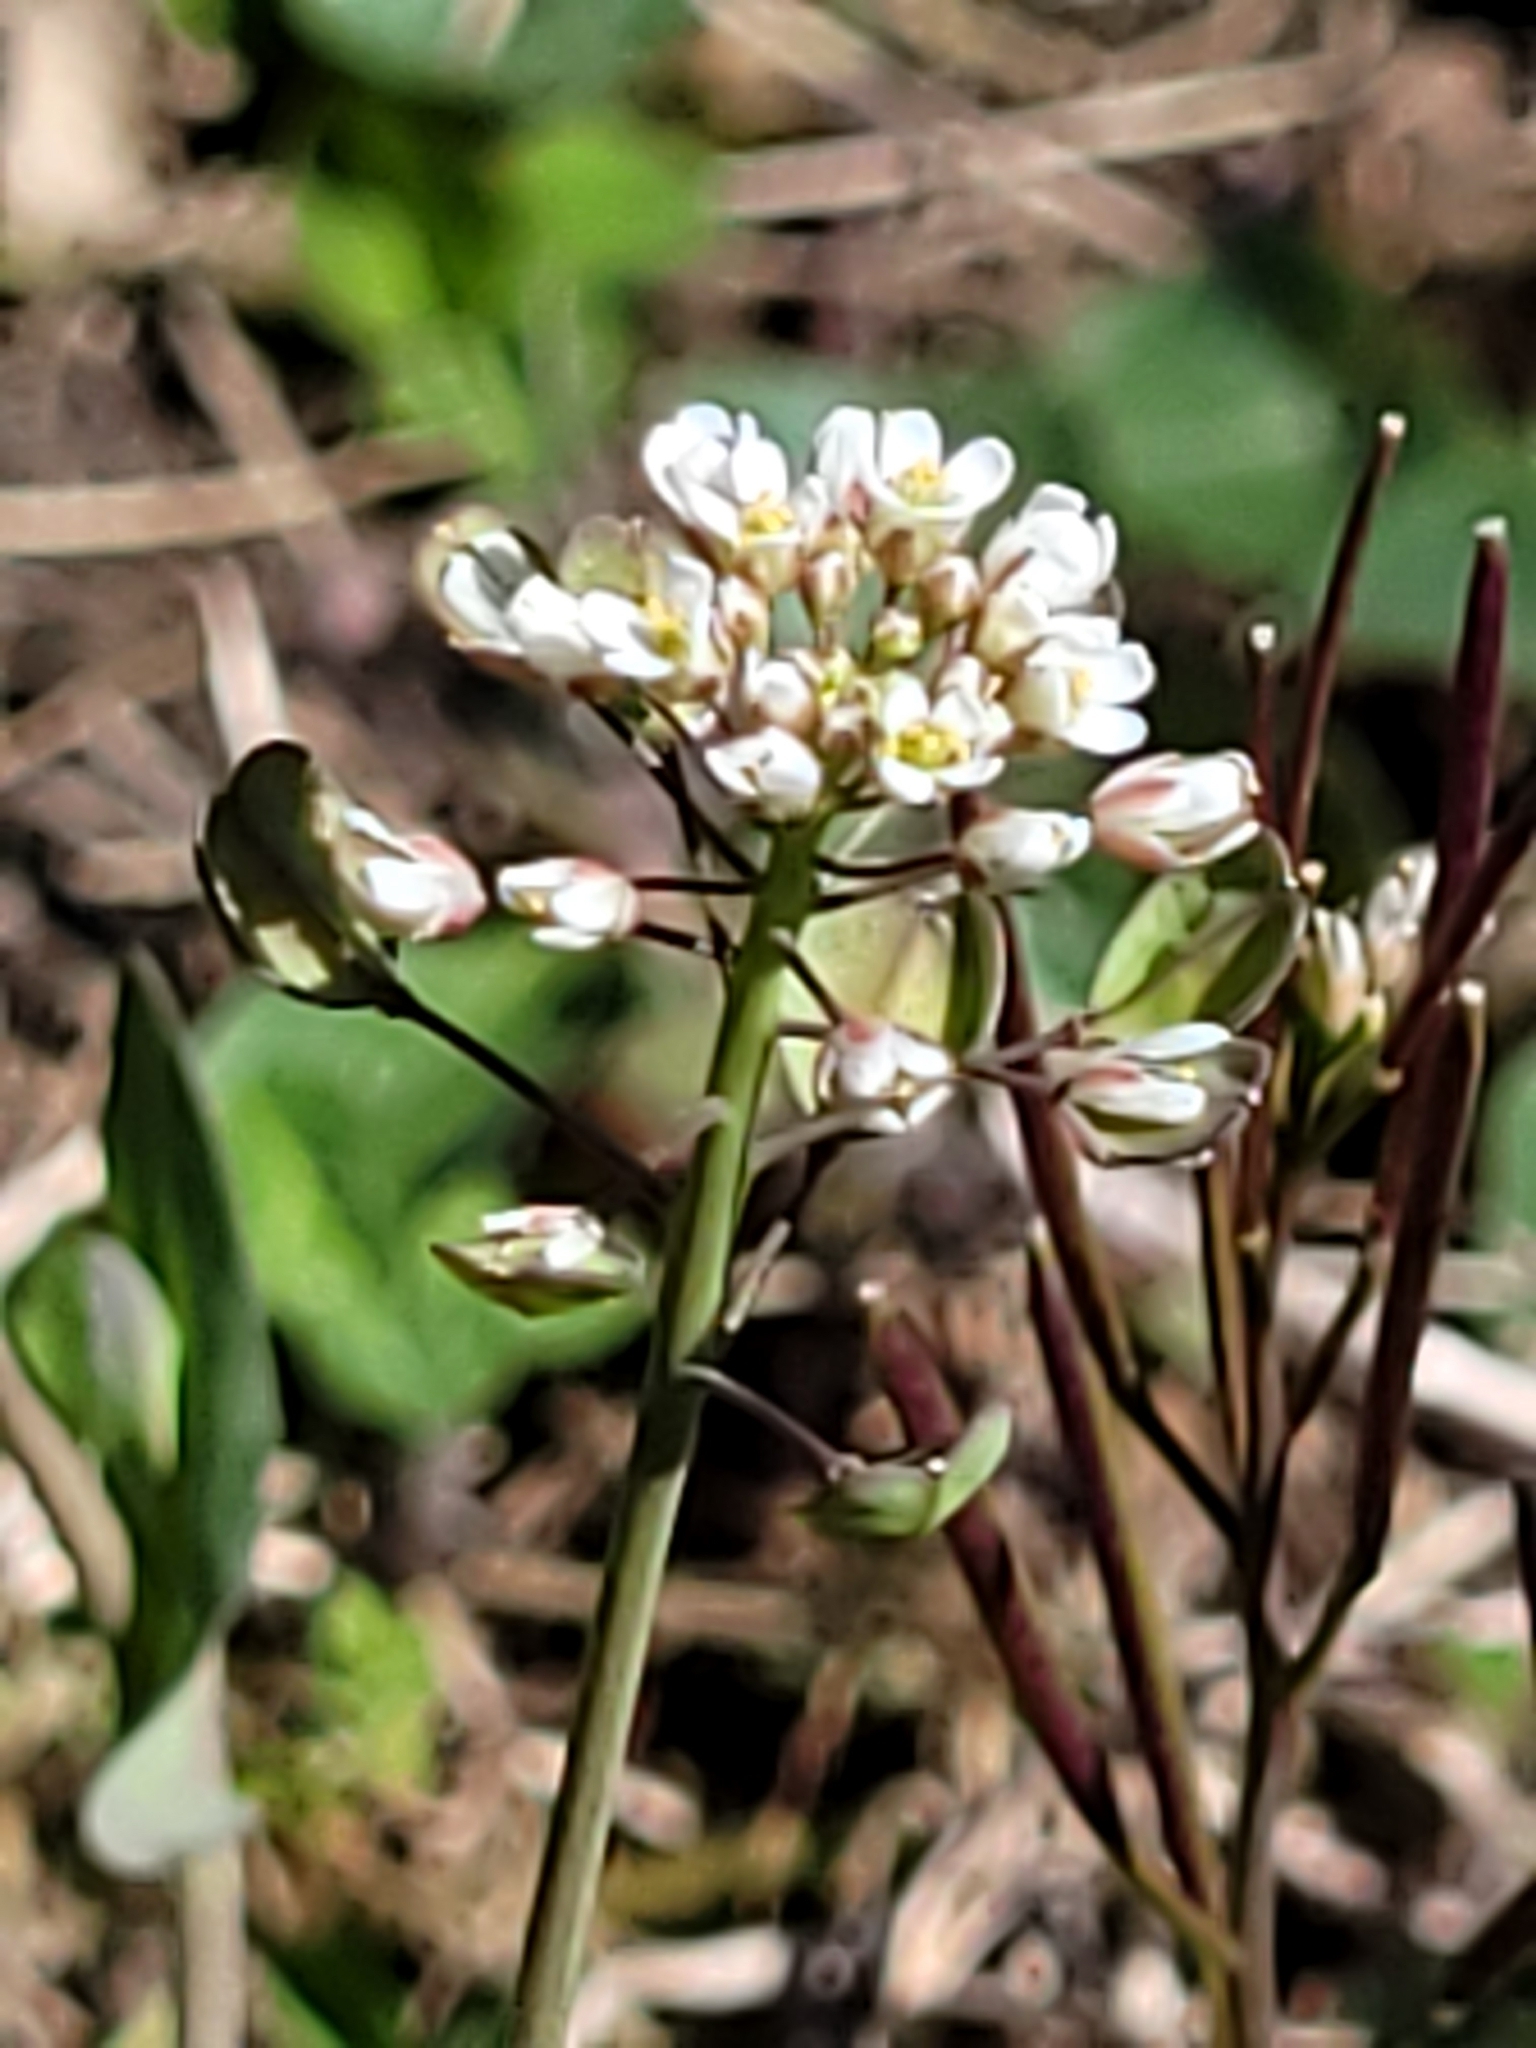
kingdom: Plantae
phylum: Tracheophyta
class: Magnoliopsida
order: Brassicales
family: Brassicaceae
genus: Noccaea
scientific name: Noccaea perfoliata
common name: Perfoliate pennycress
